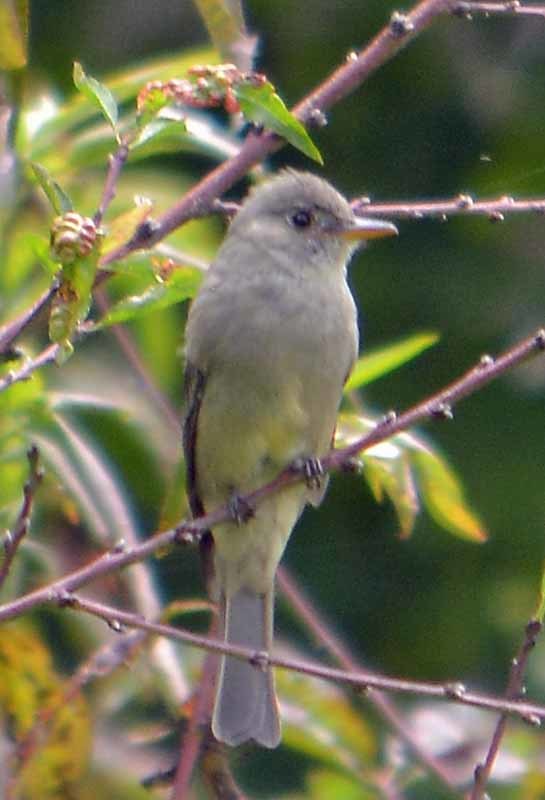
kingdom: Animalia
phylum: Chordata
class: Aves
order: Passeriformes
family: Tyrannidae
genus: Contopus
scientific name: Contopus pertinax
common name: Greater pewee
